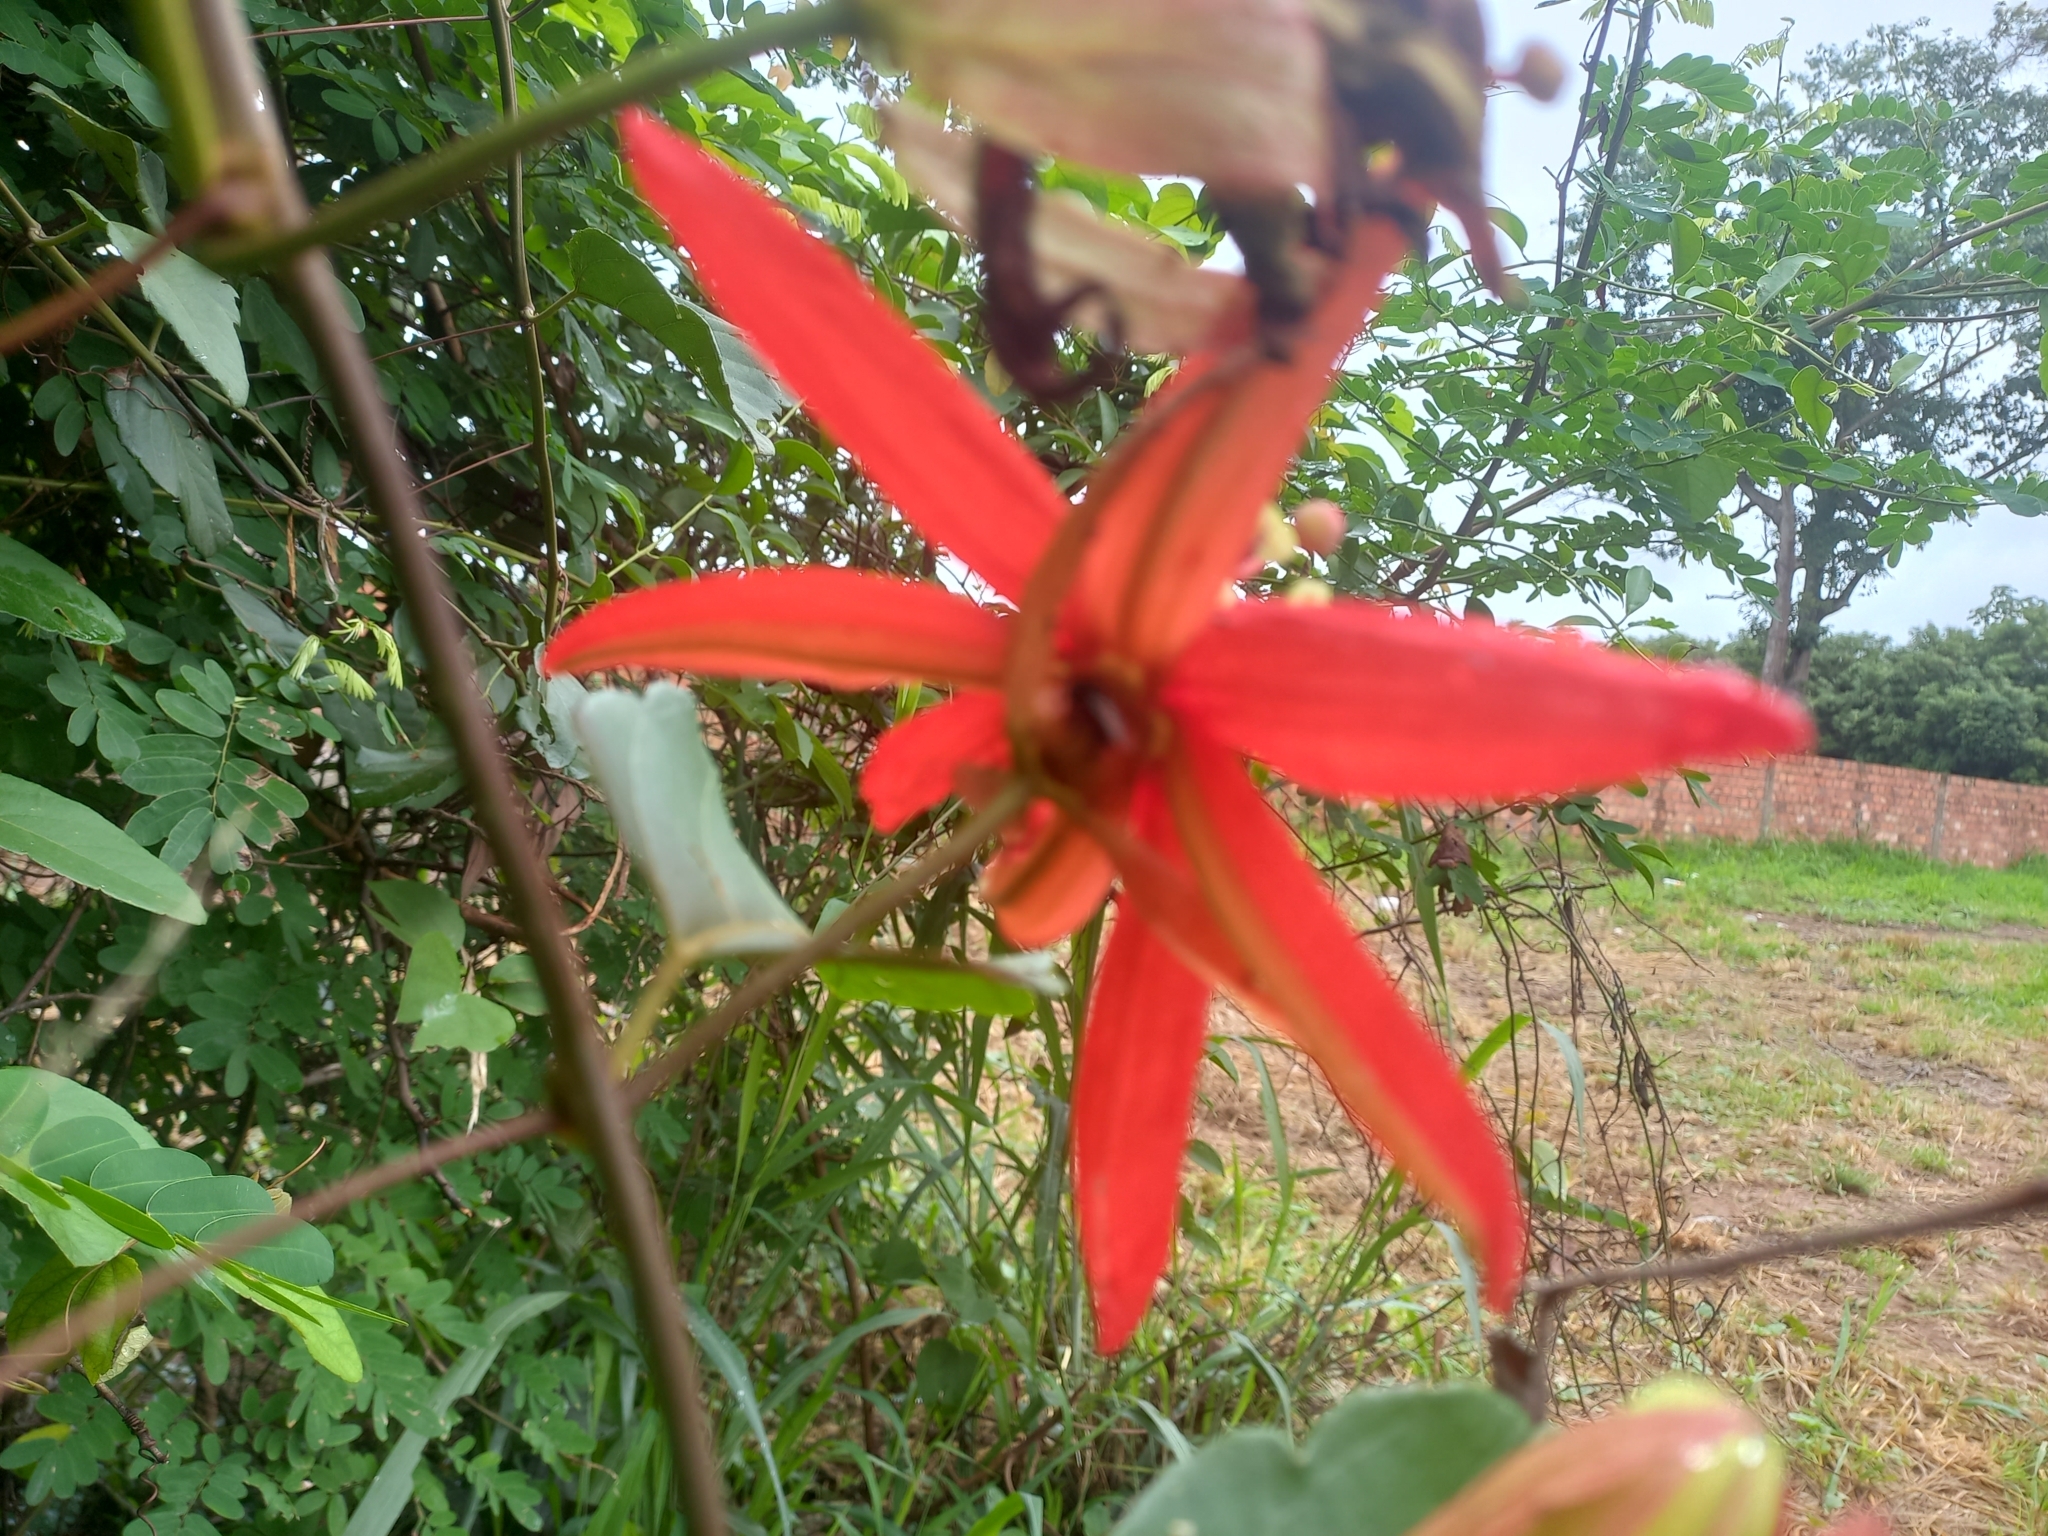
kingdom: Plantae
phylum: Tracheophyta
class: Magnoliopsida
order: Malpighiales
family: Passifloraceae
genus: Passiflora
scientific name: Passiflora miniata
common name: Red granadilla
